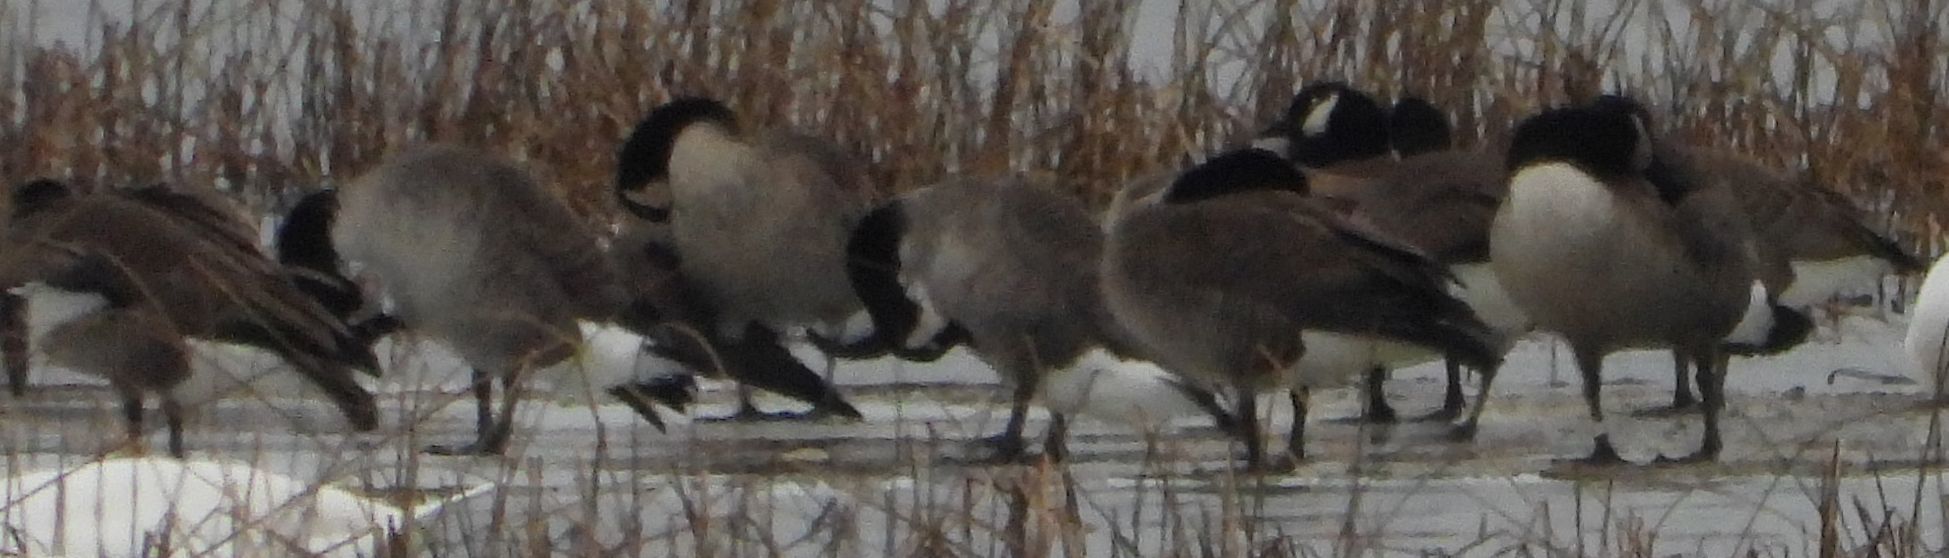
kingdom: Animalia
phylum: Chordata
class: Aves
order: Anseriformes
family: Anatidae
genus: Branta
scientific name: Branta canadensis
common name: Canada goose
